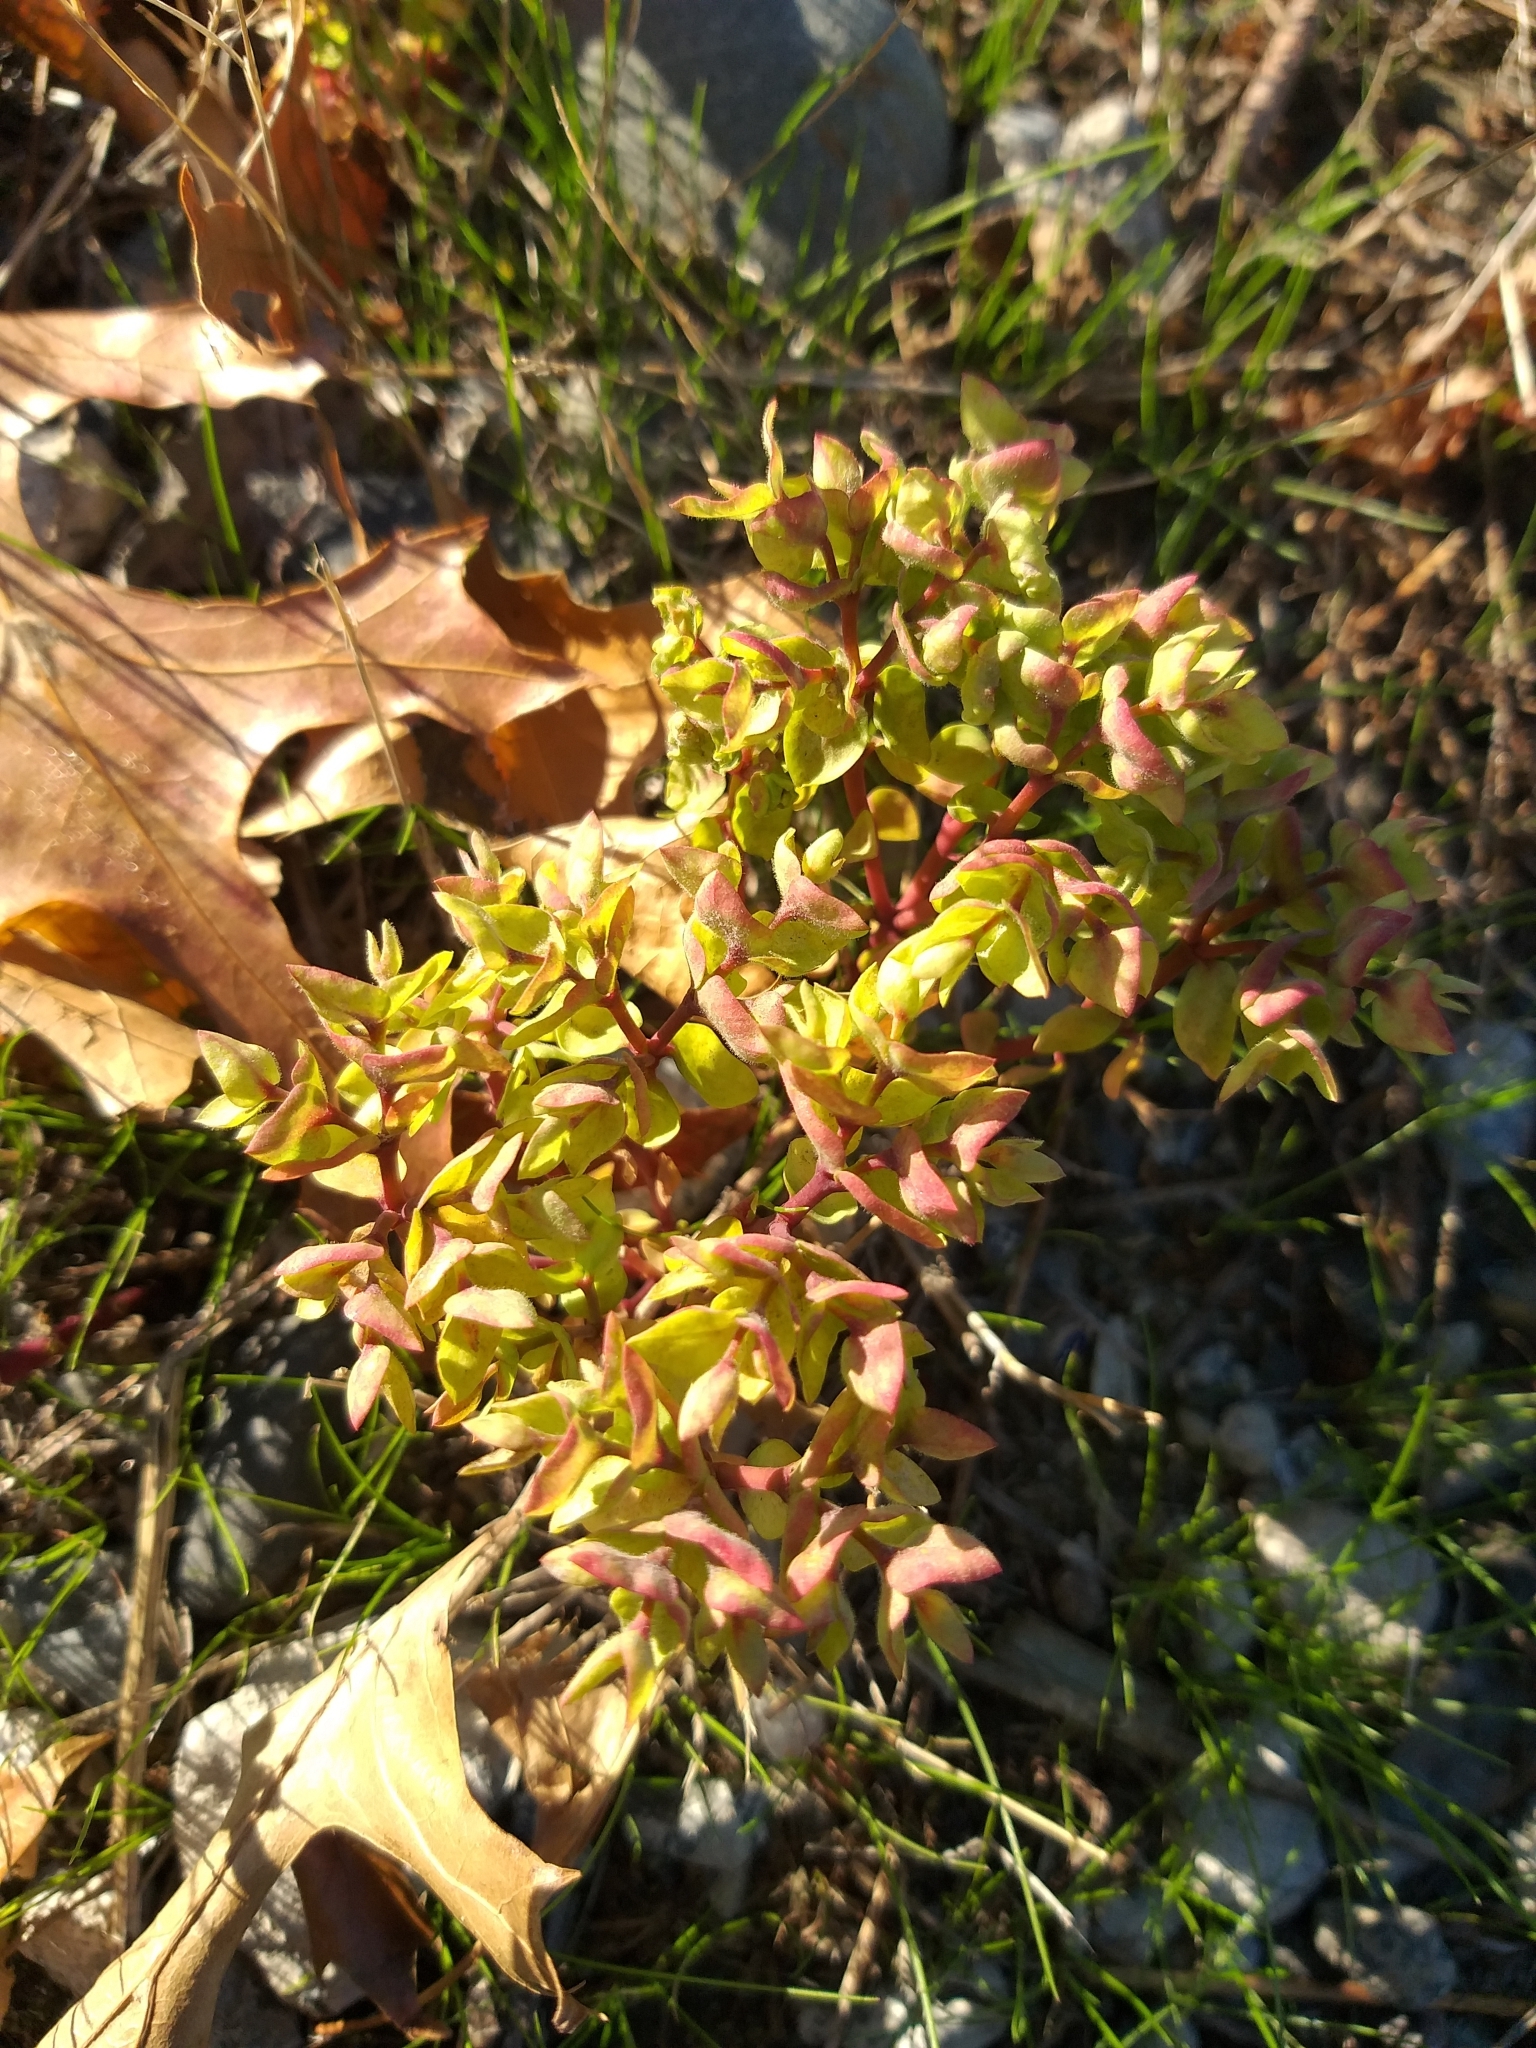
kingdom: Plantae
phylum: Tracheophyta
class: Magnoliopsida
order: Malpighiales
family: Euphorbiaceae
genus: Euphorbia
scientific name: Euphorbia peplus
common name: Petty spurge
